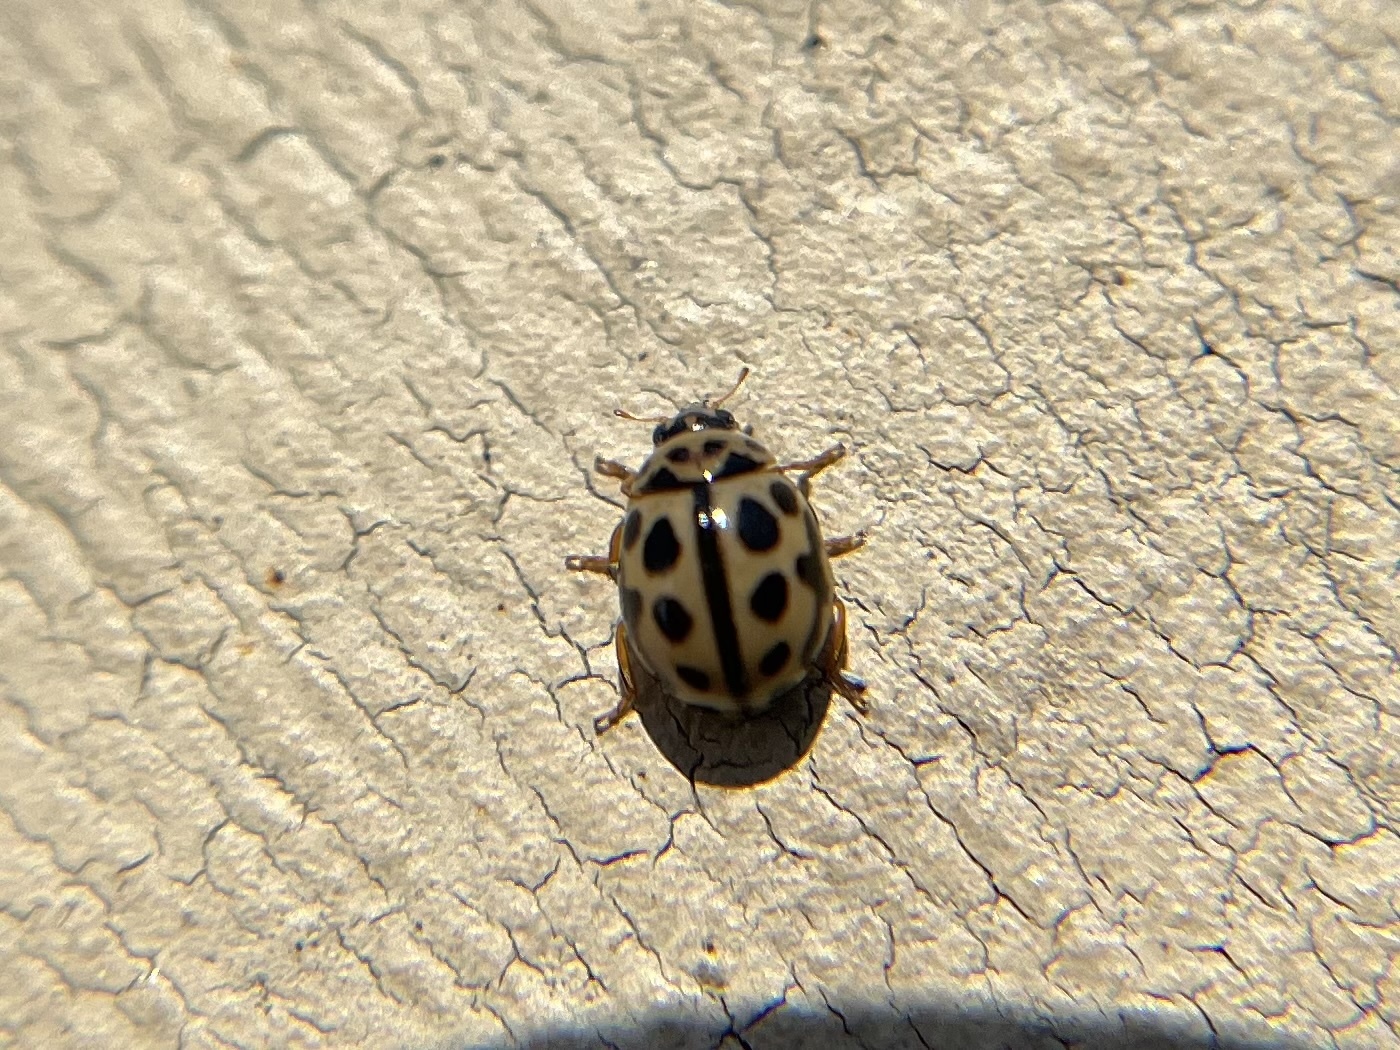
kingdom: Animalia
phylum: Arthropoda
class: Insecta
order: Coleoptera
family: Coccinellidae
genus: Tytthaspis
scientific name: Tytthaspis sedecimpunctata
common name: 16-spot ladybird
